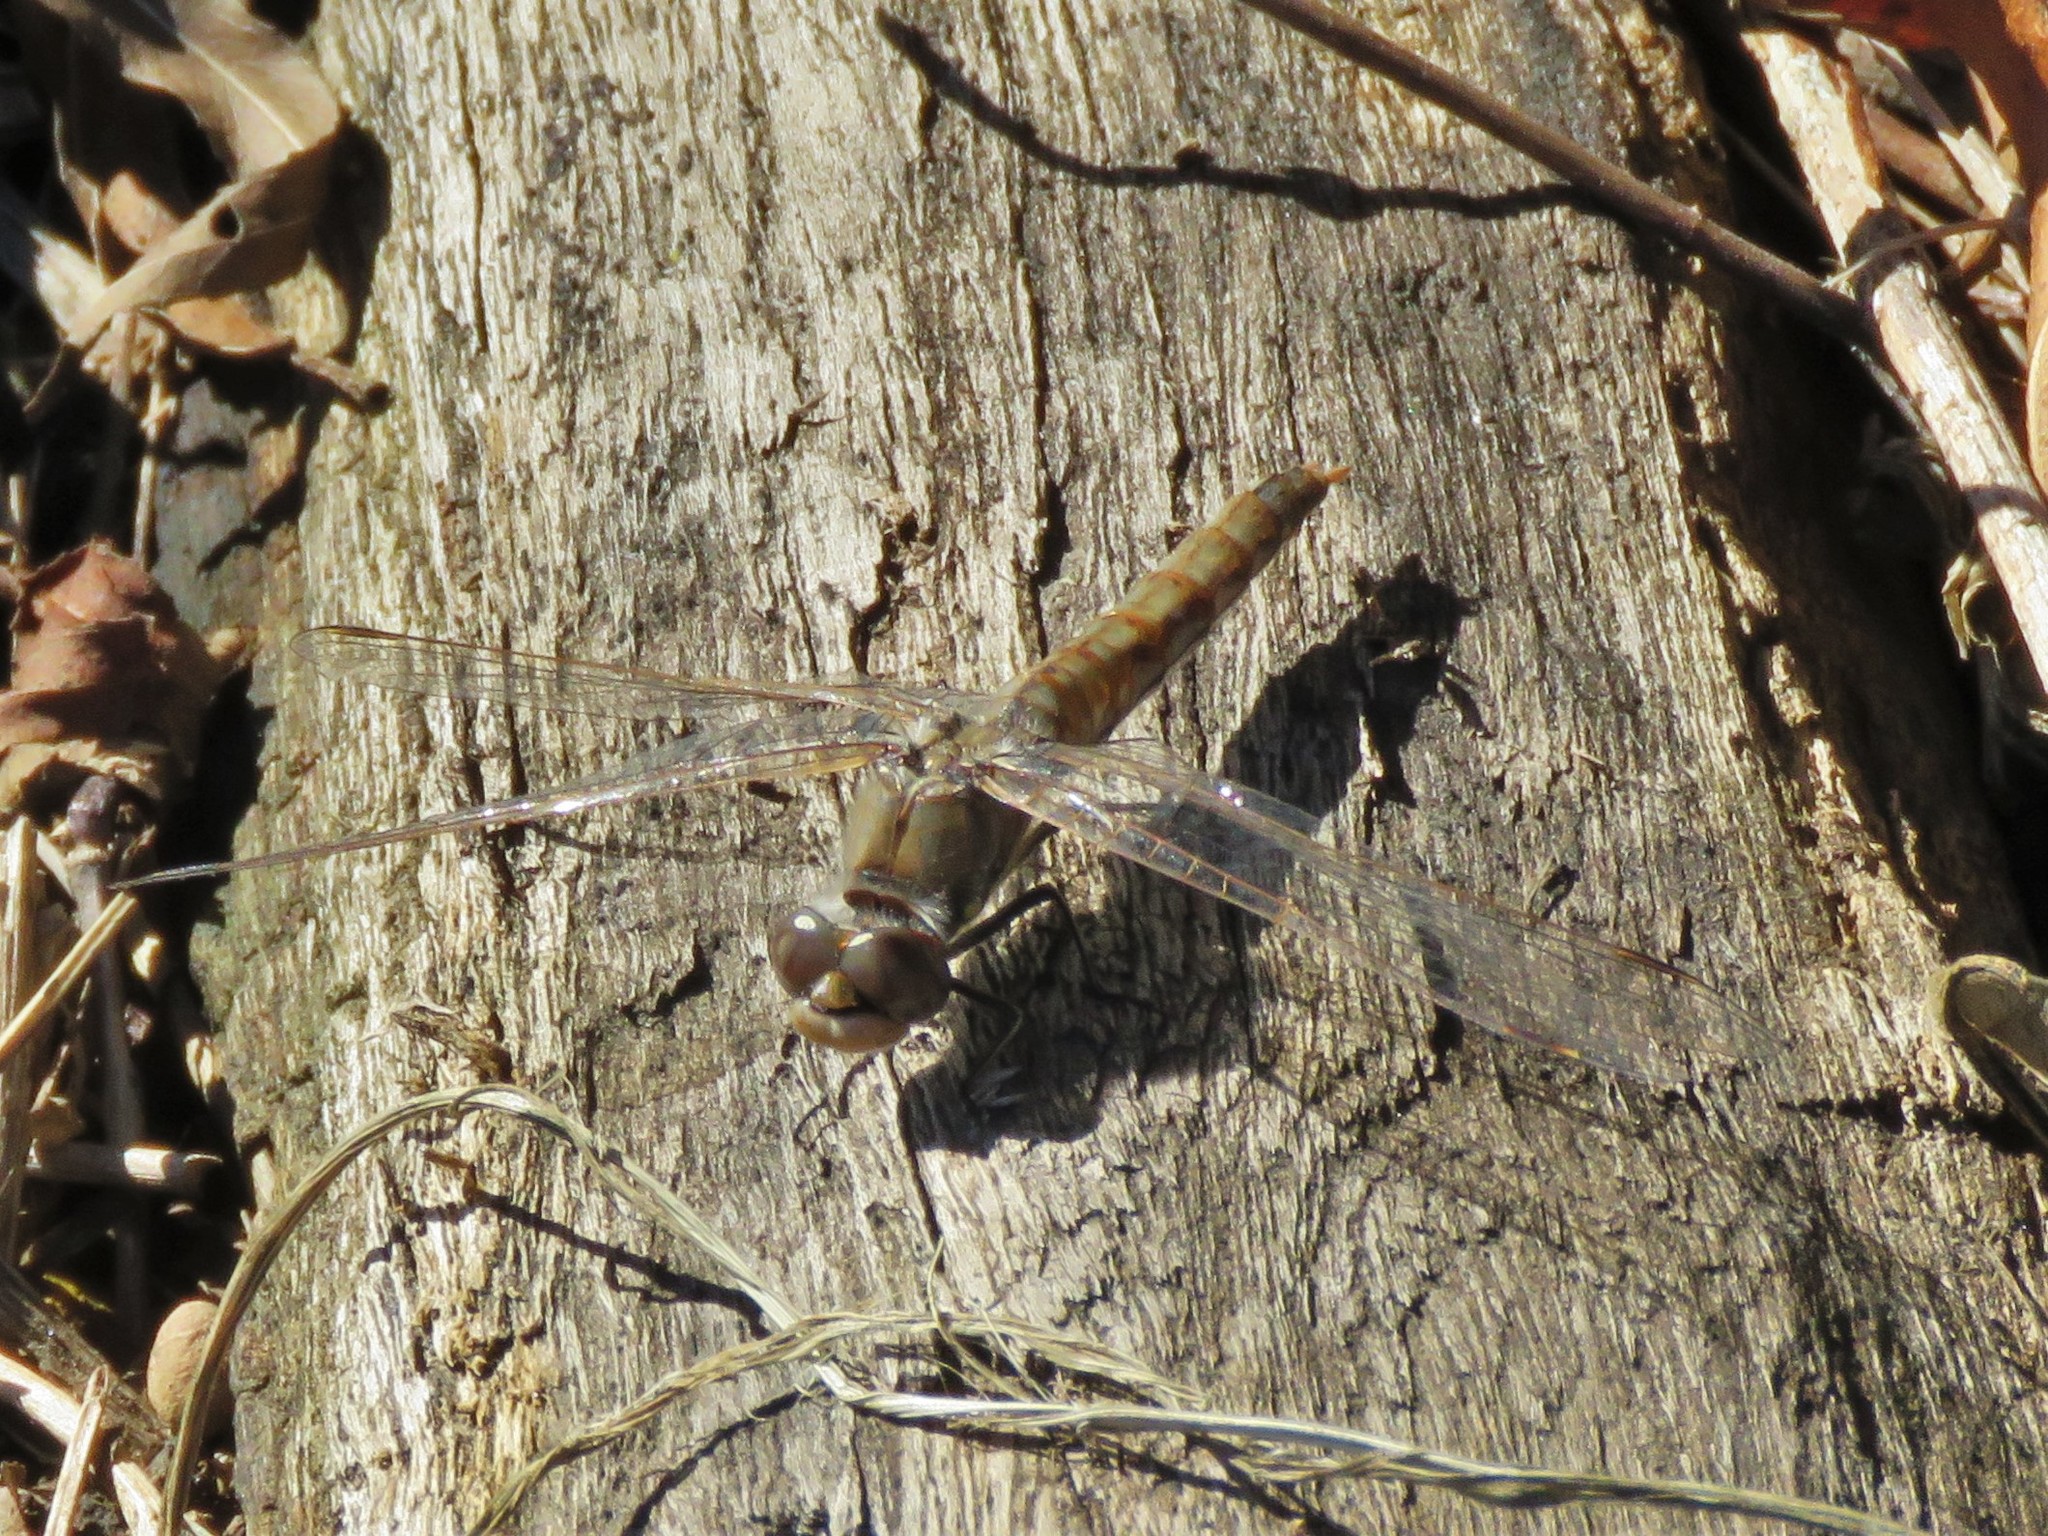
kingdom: Animalia
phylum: Arthropoda
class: Insecta
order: Odonata
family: Libellulidae
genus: Sympetrum
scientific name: Sympetrum corruptum
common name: Variegated meadowhawk
